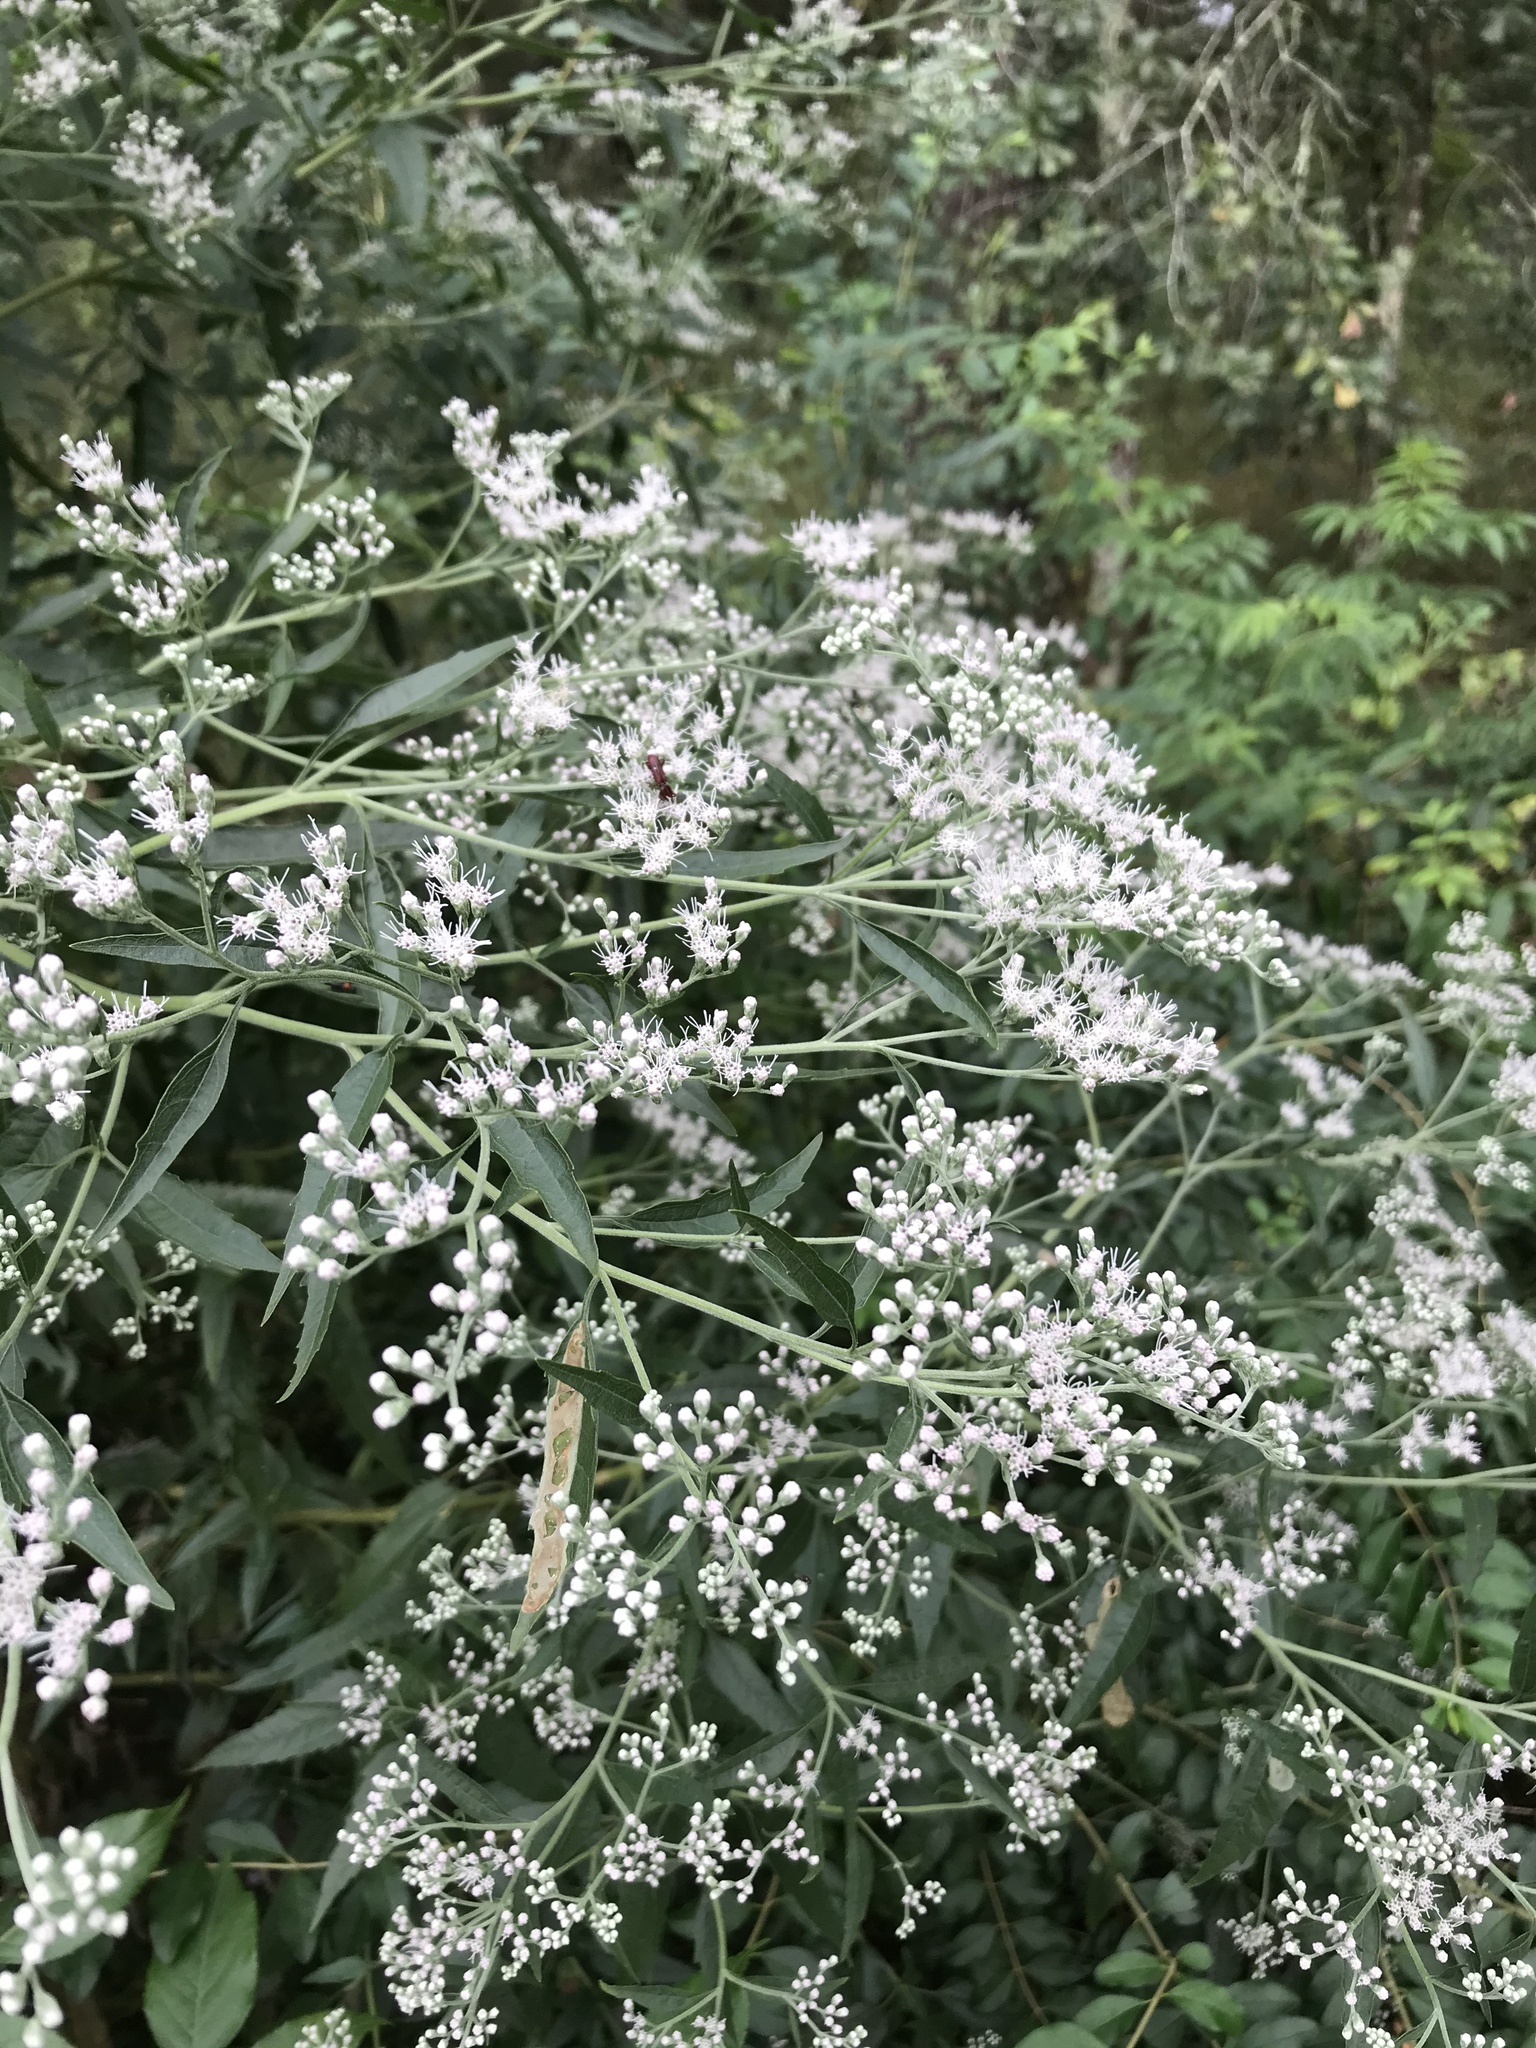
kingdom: Plantae
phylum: Tracheophyta
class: Magnoliopsida
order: Asterales
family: Asteraceae
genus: Eupatorium
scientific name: Eupatorium serotinum
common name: Late boneset
